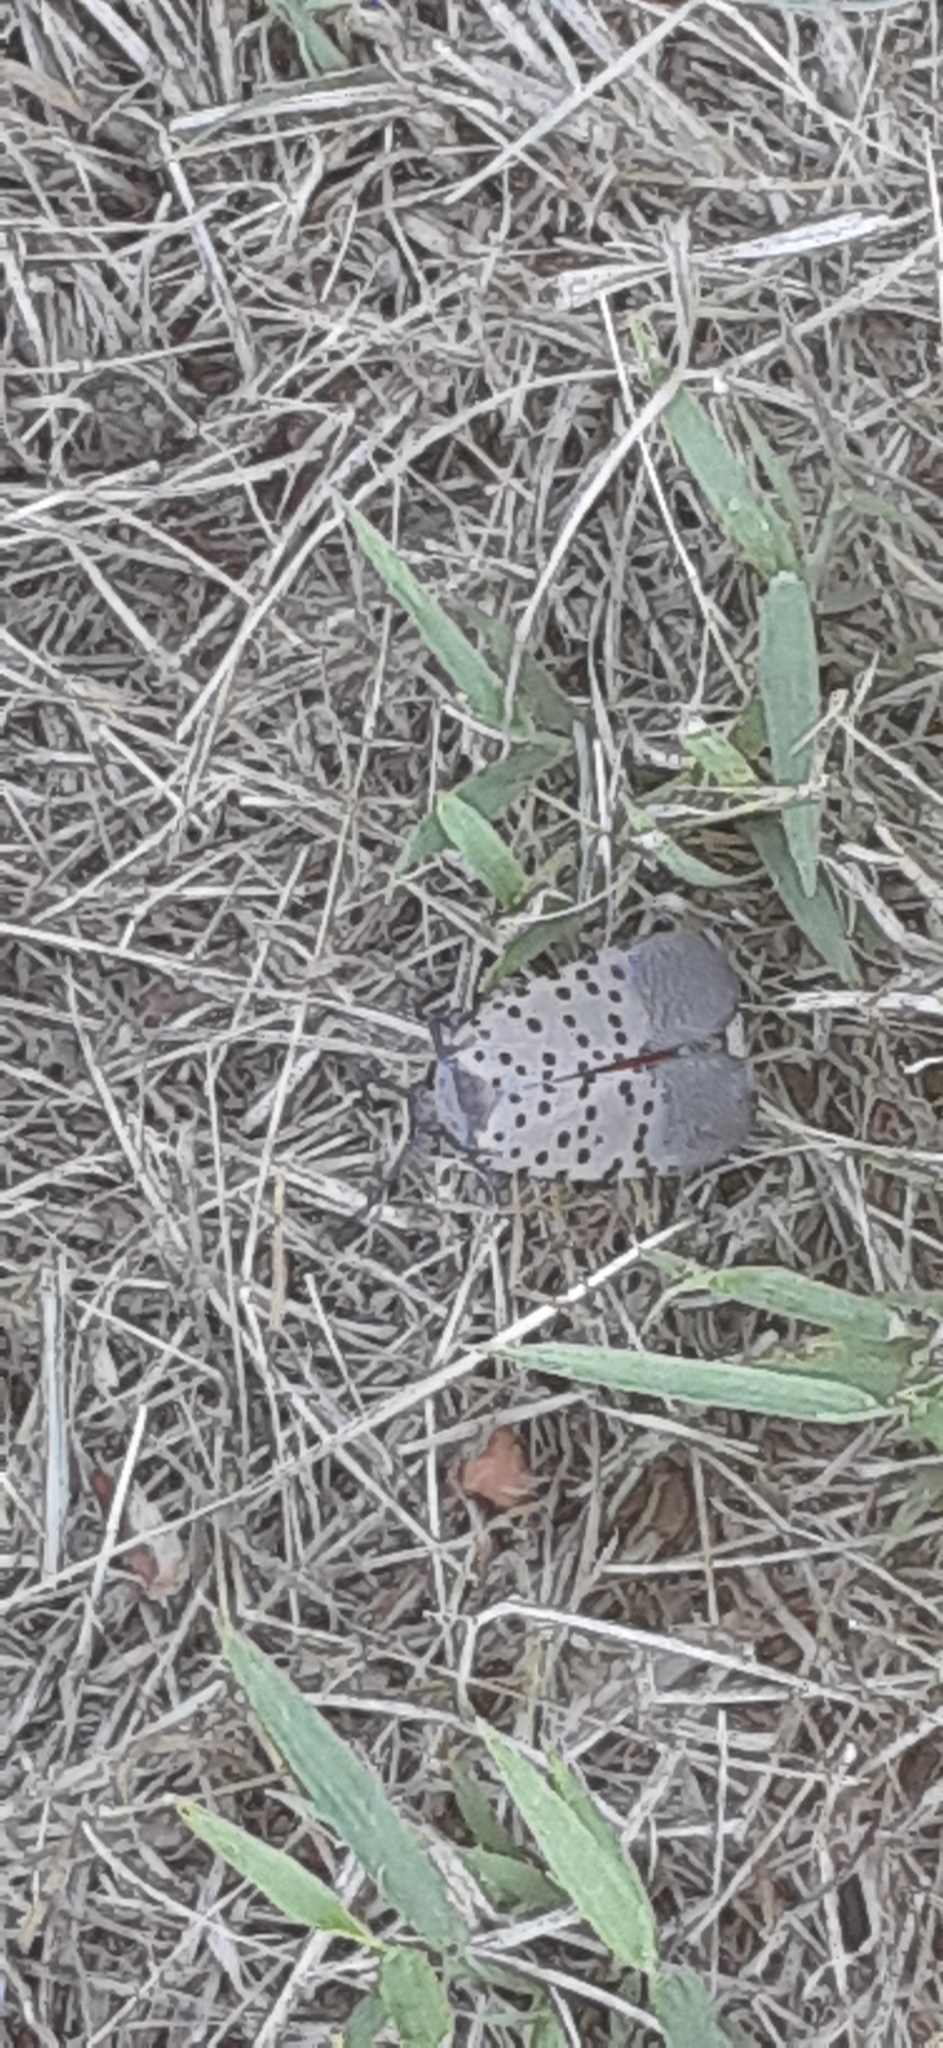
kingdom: Animalia
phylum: Arthropoda
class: Insecta
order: Hemiptera
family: Fulgoridae
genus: Lycorma
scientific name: Lycorma delicatula
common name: Spotted lanternfly
